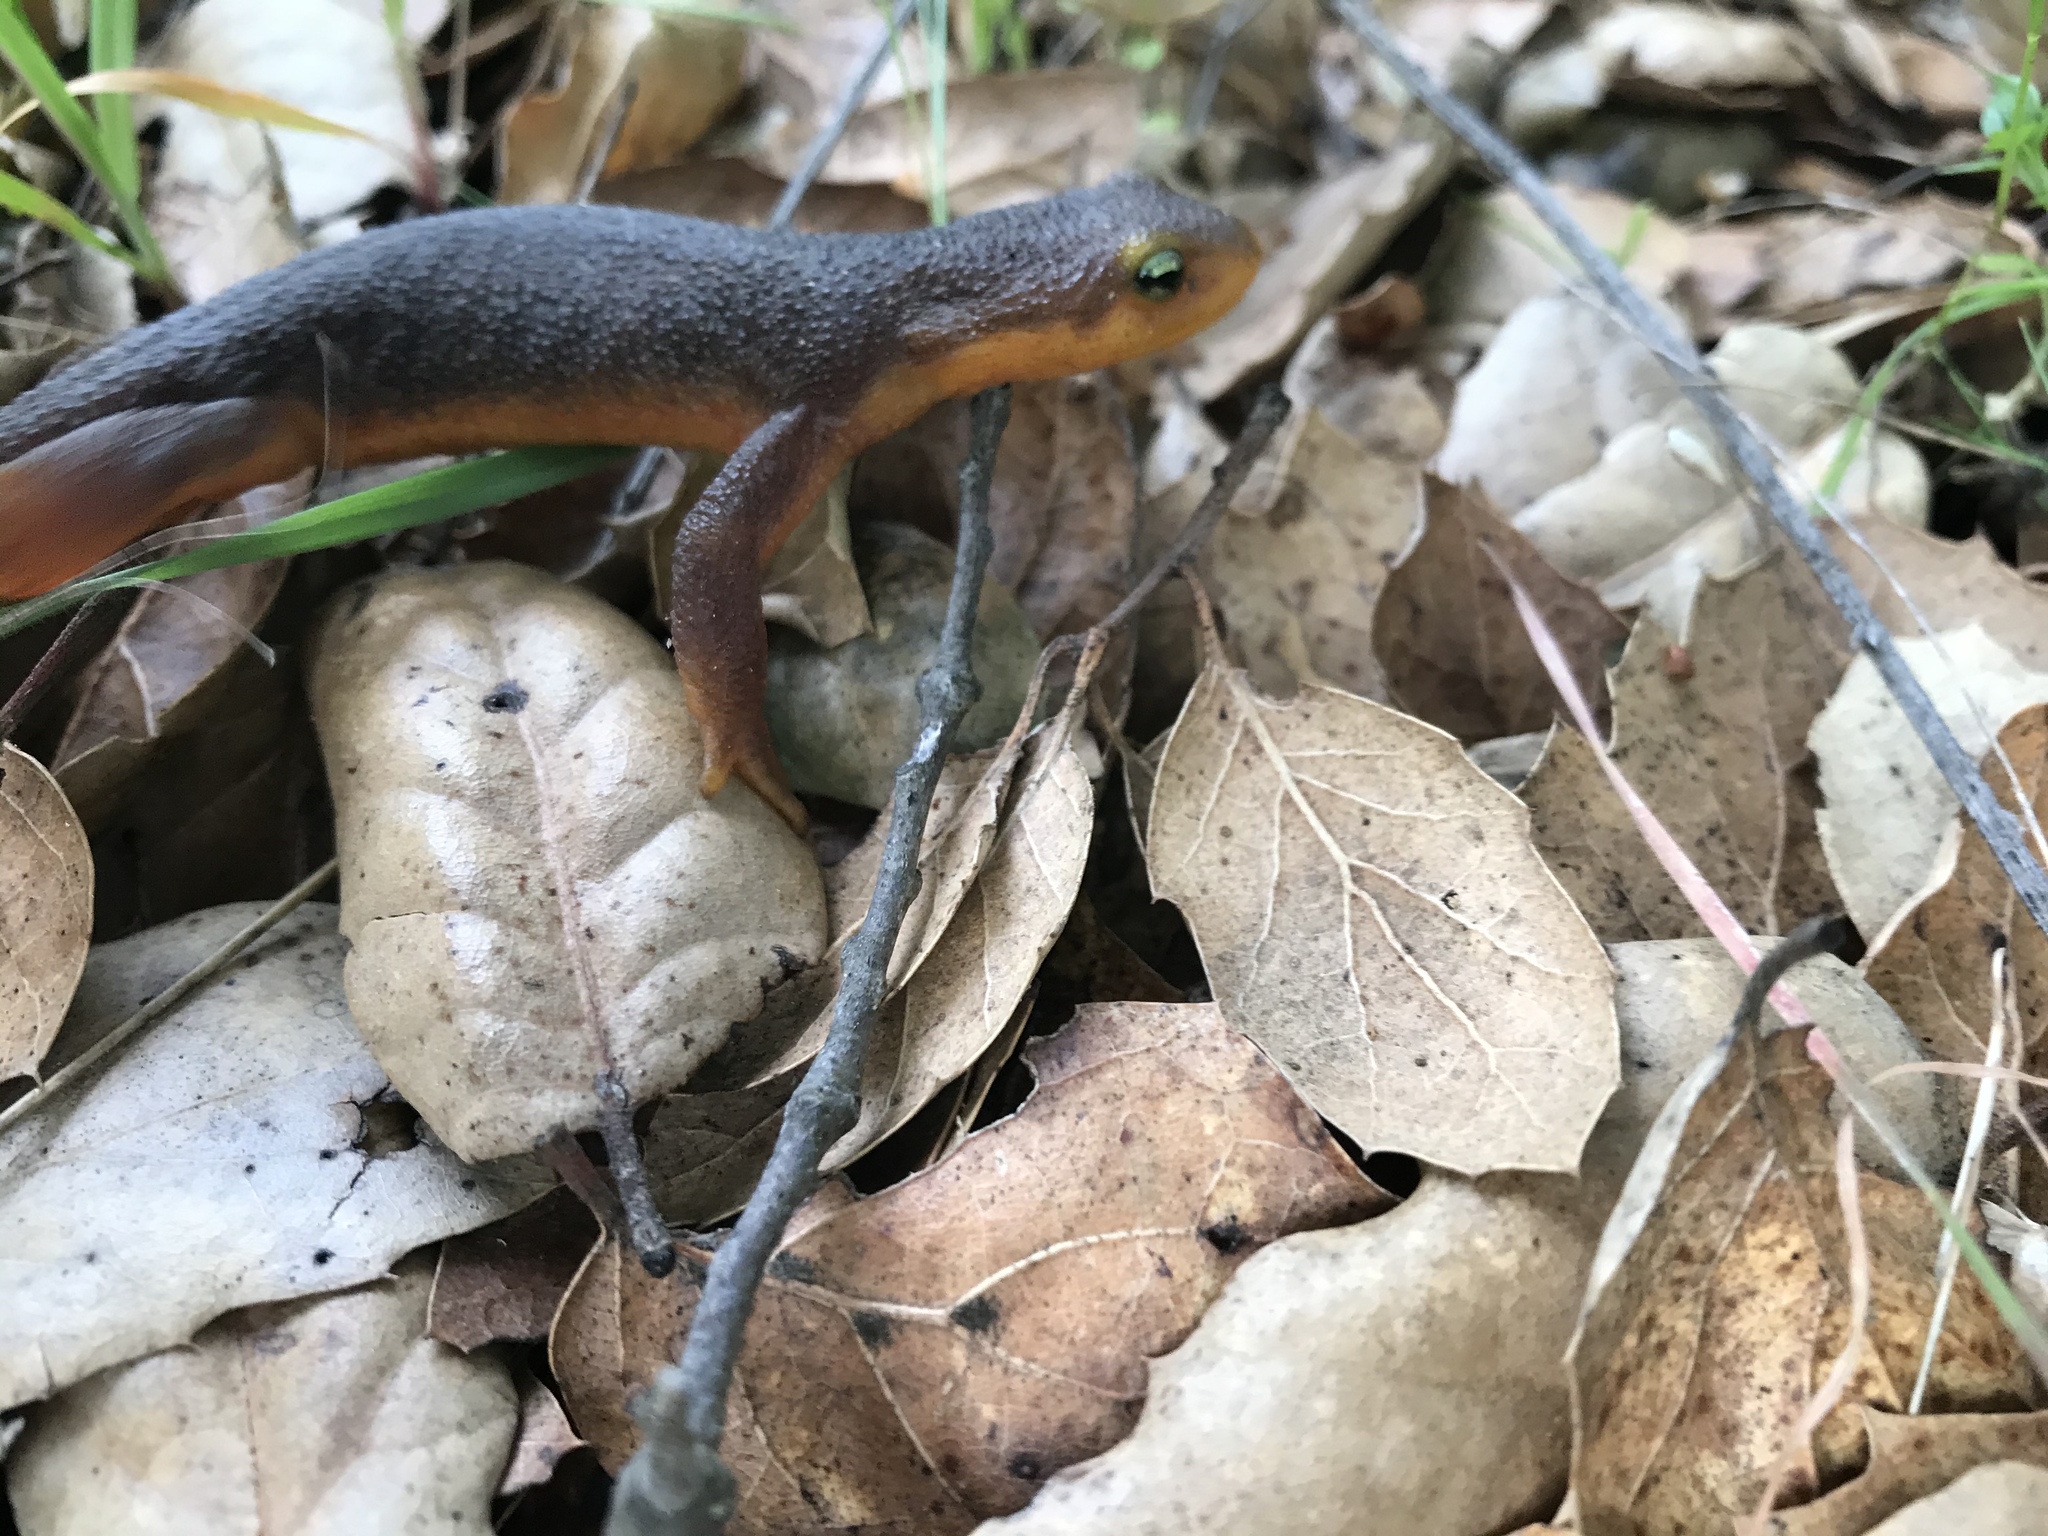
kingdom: Animalia
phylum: Chordata
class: Amphibia
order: Caudata
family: Salamandridae
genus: Taricha
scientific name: Taricha torosa
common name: California newt
